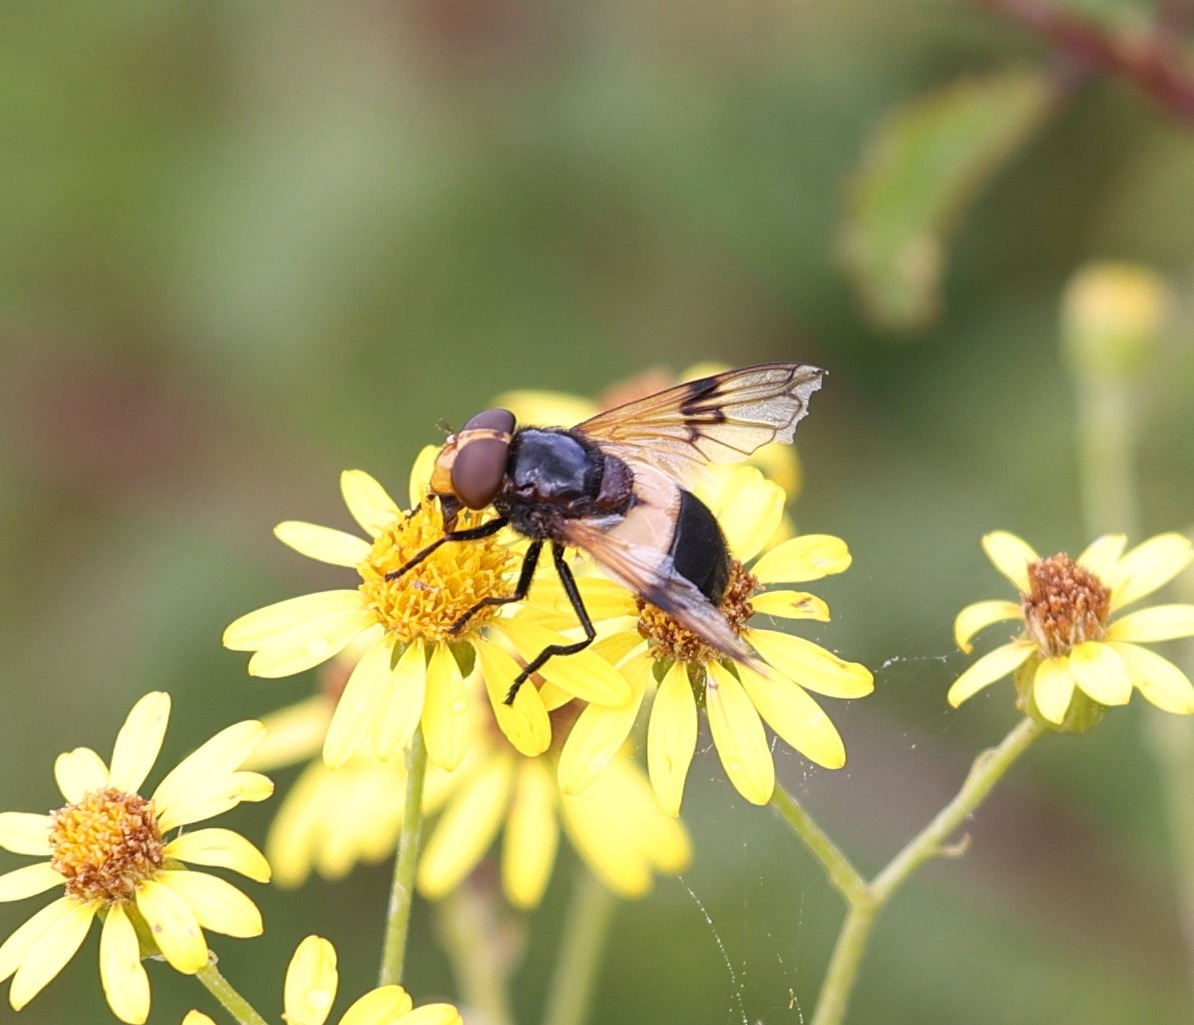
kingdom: Animalia
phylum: Arthropoda
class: Insecta
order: Diptera
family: Syrphidae
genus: Volucella
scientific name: Volucella pellucens
